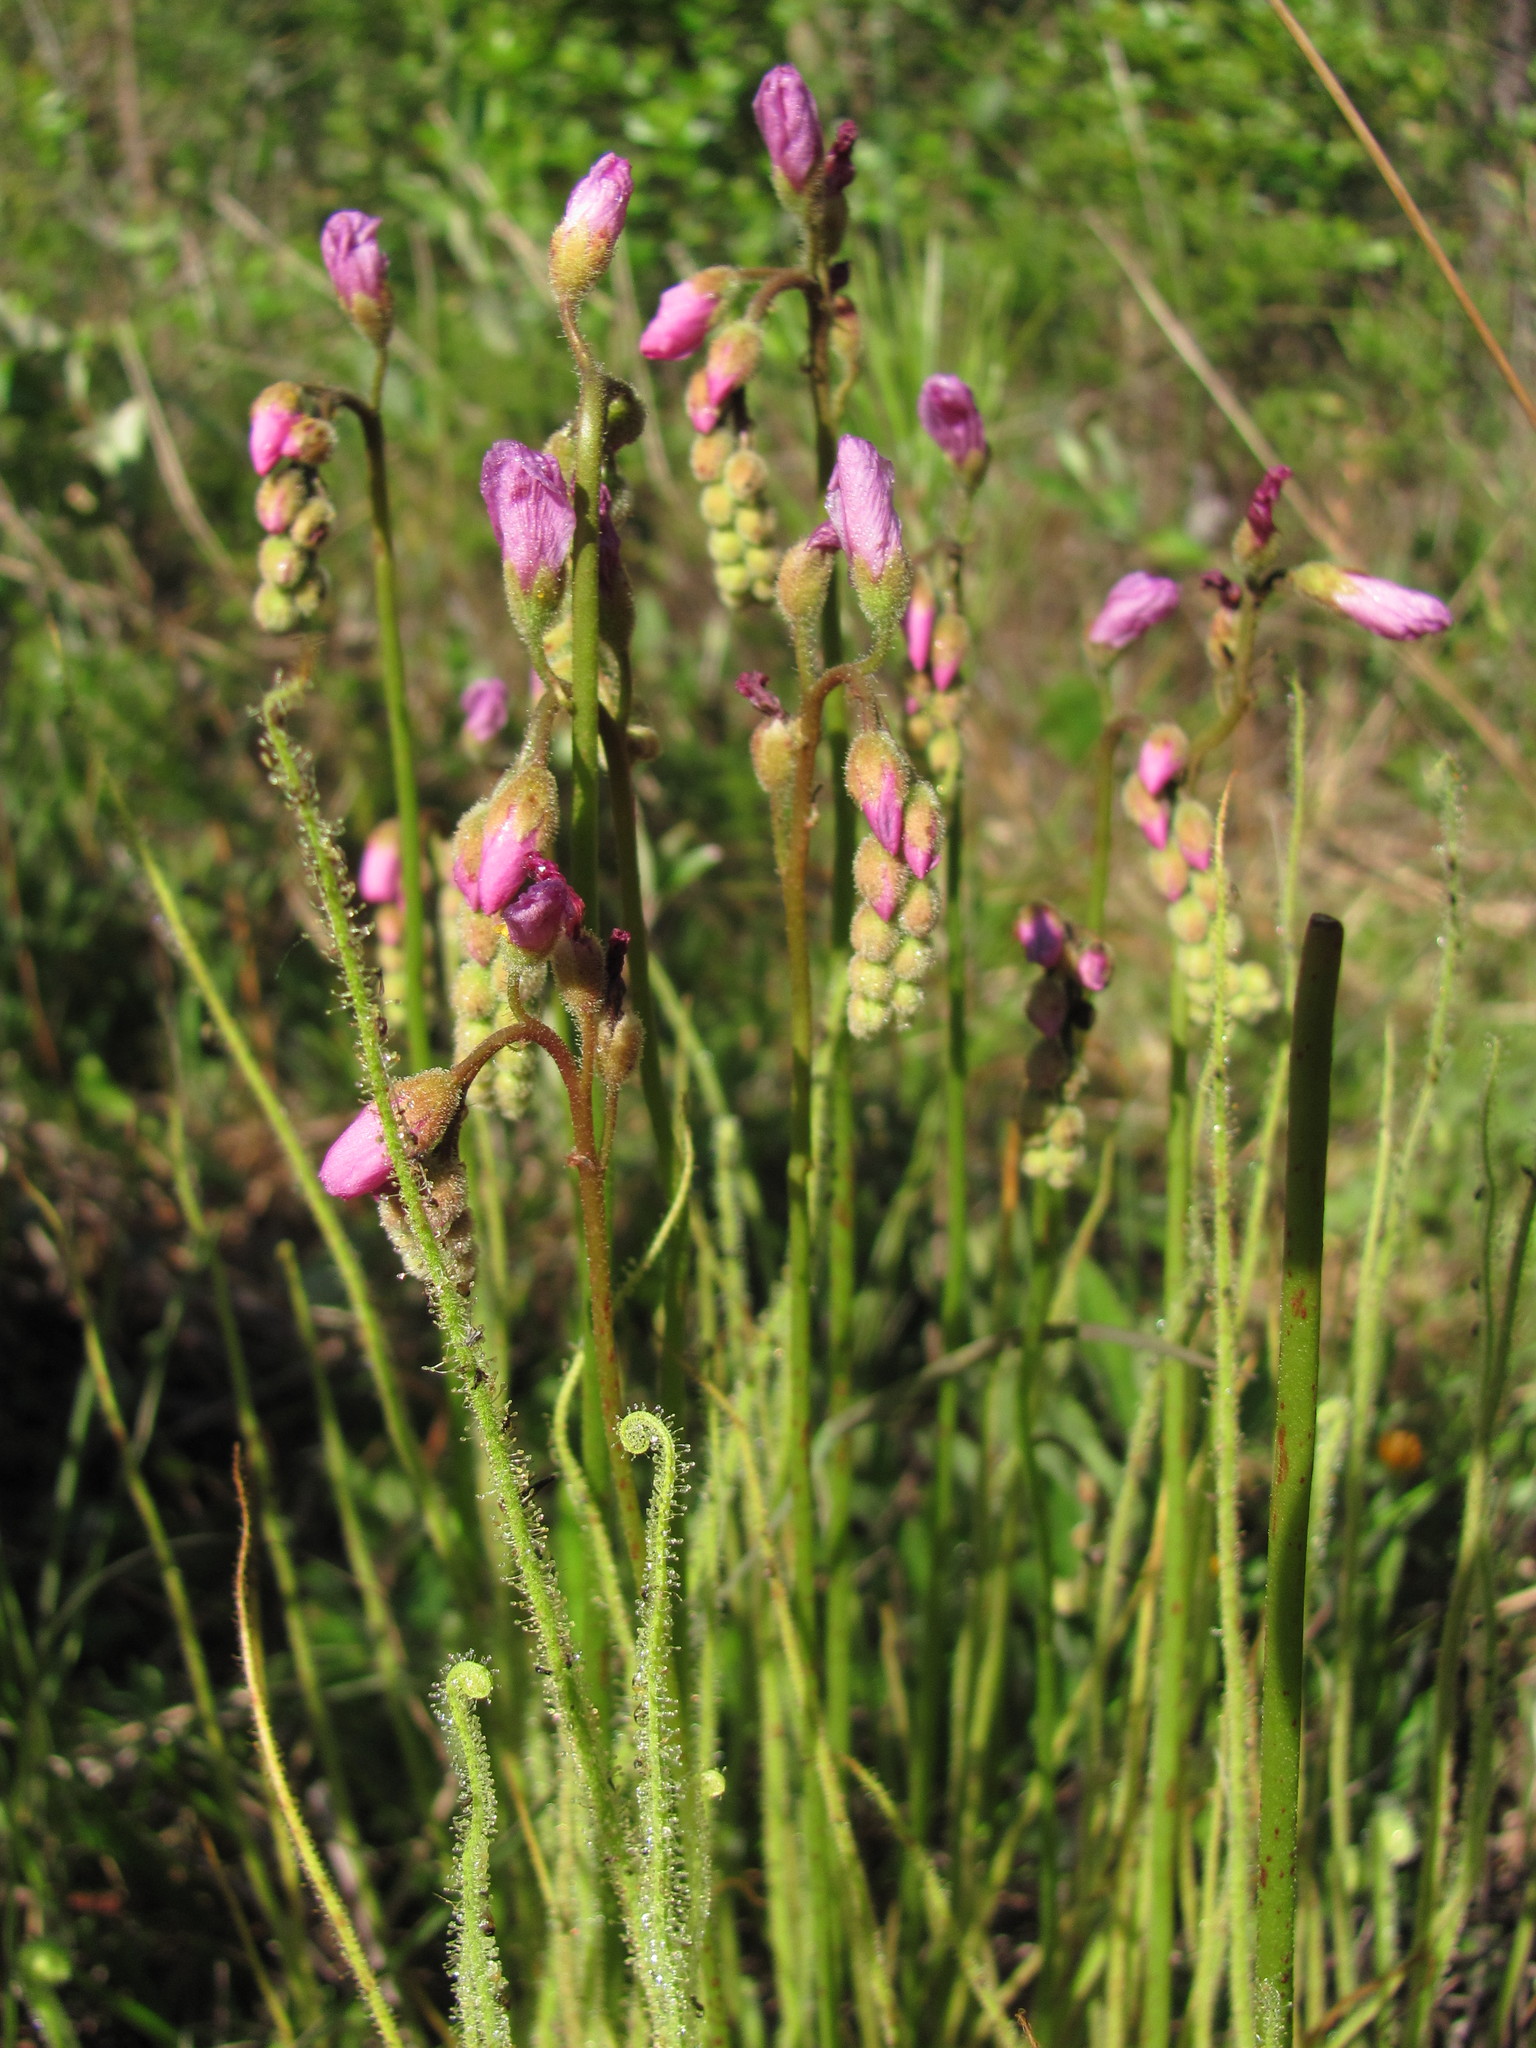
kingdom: Plantae
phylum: Tracheophyta
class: Magnoliopsida
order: Caryophyllales
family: Droseraceae
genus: Drosera
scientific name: Drosera filiformis
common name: Dew-thread
